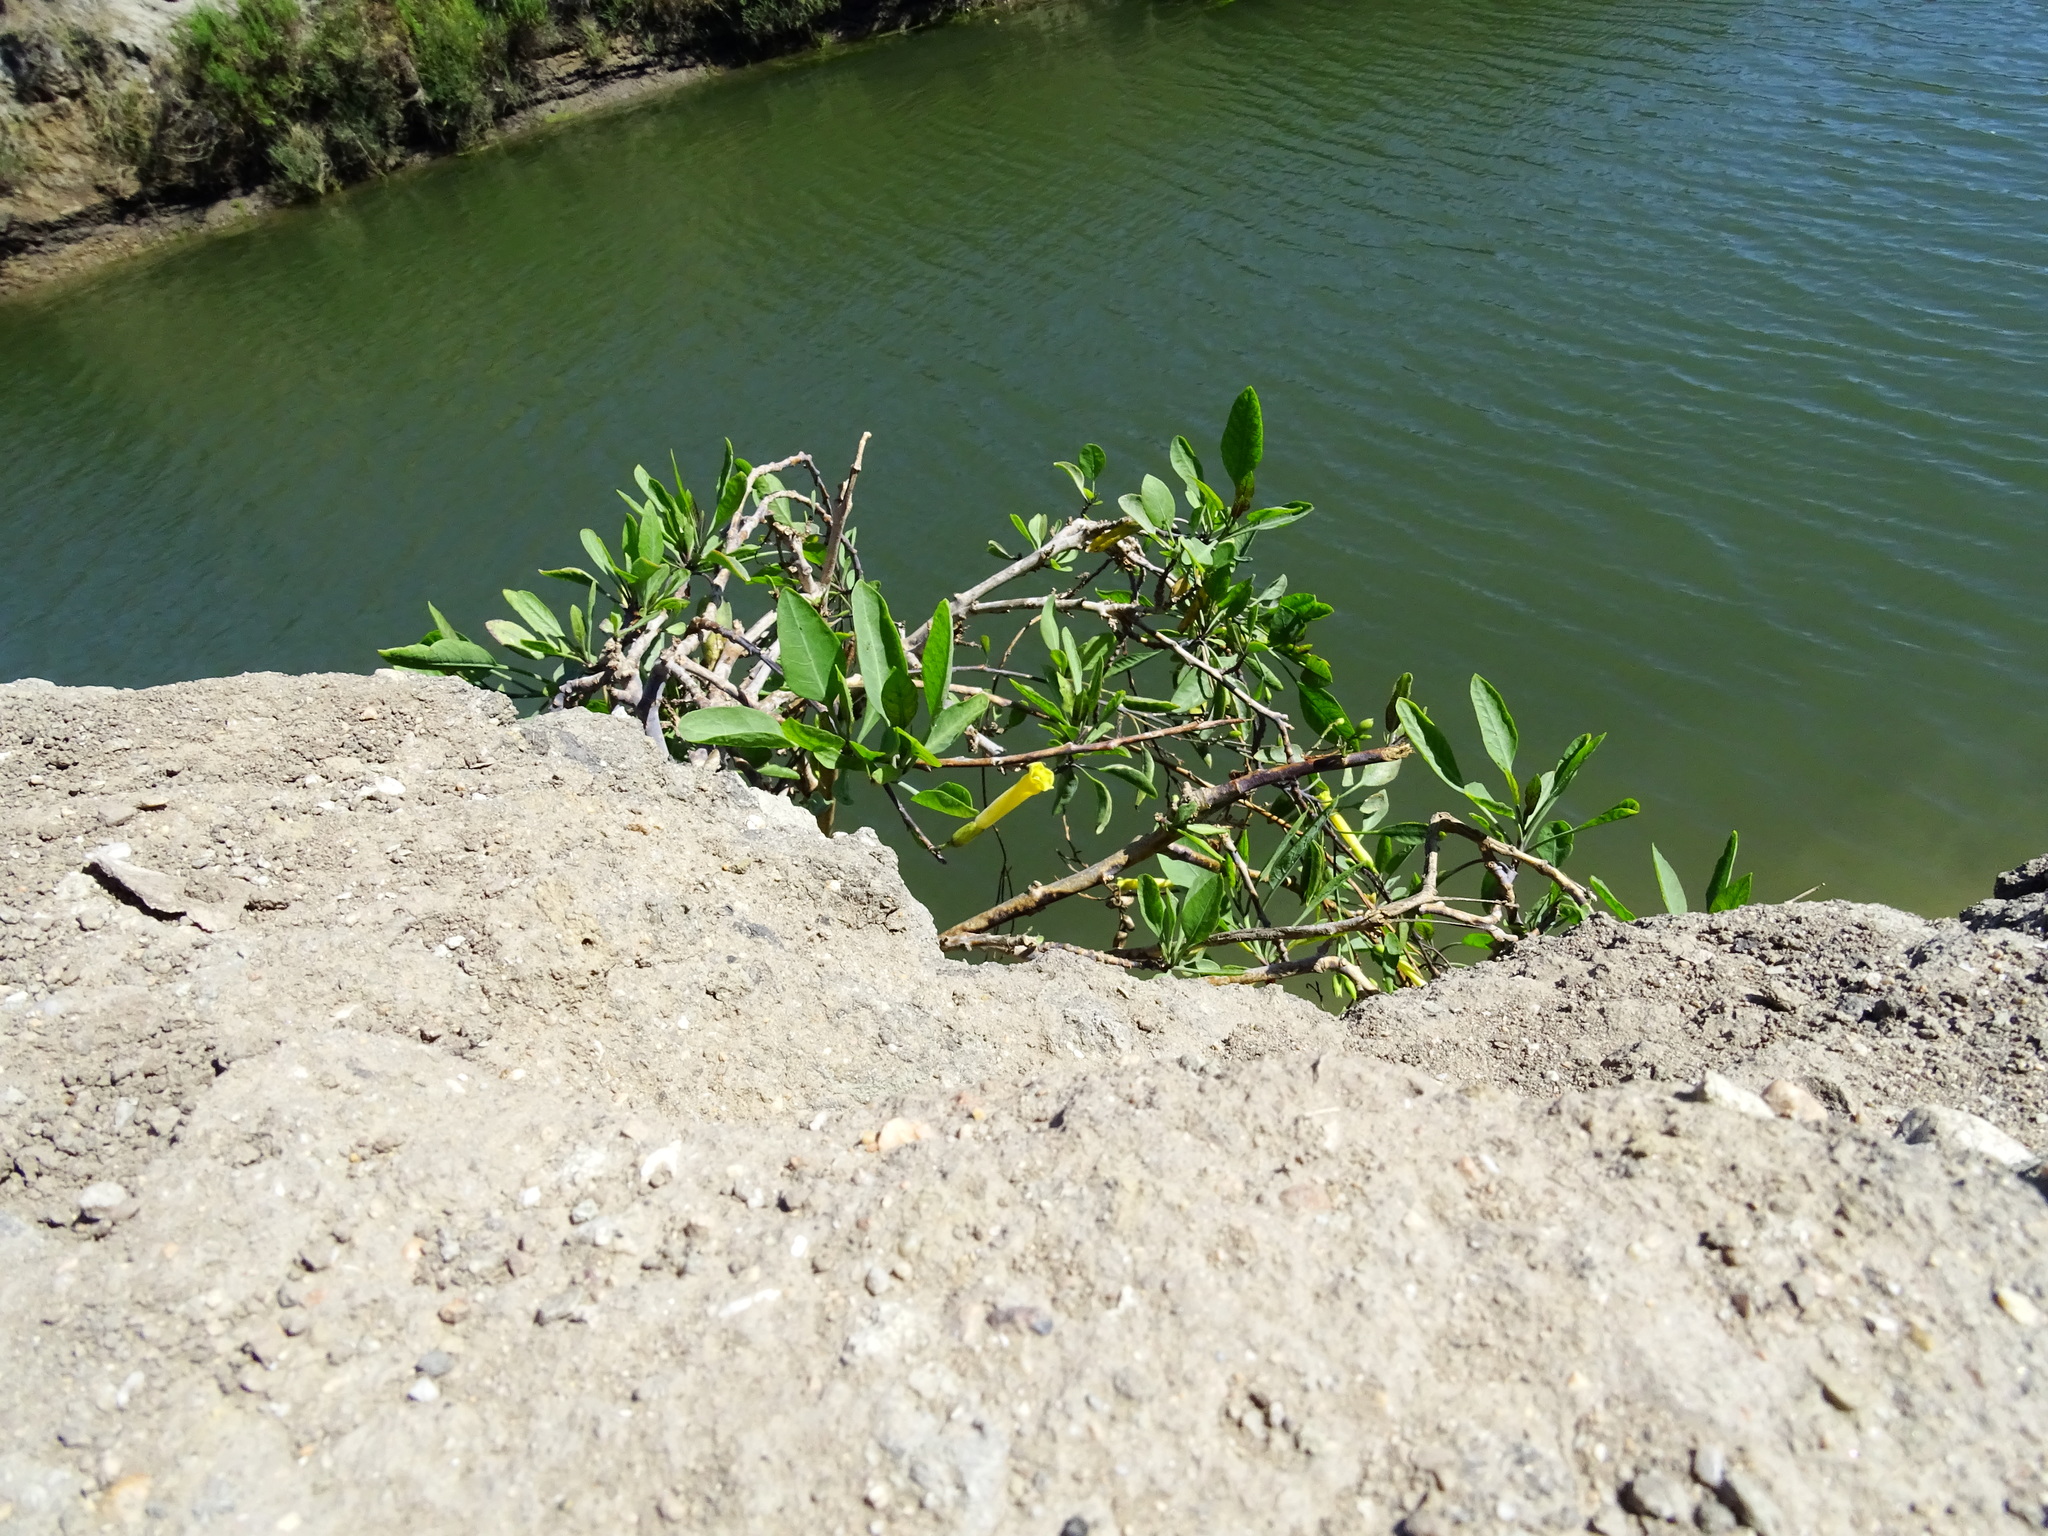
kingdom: Plantae
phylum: Tracheophyta
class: Magnoliopsida
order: Solanales
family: Solanaceae
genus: Nicotiana
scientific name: Nicotiana glauca
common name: Tree tobacco
